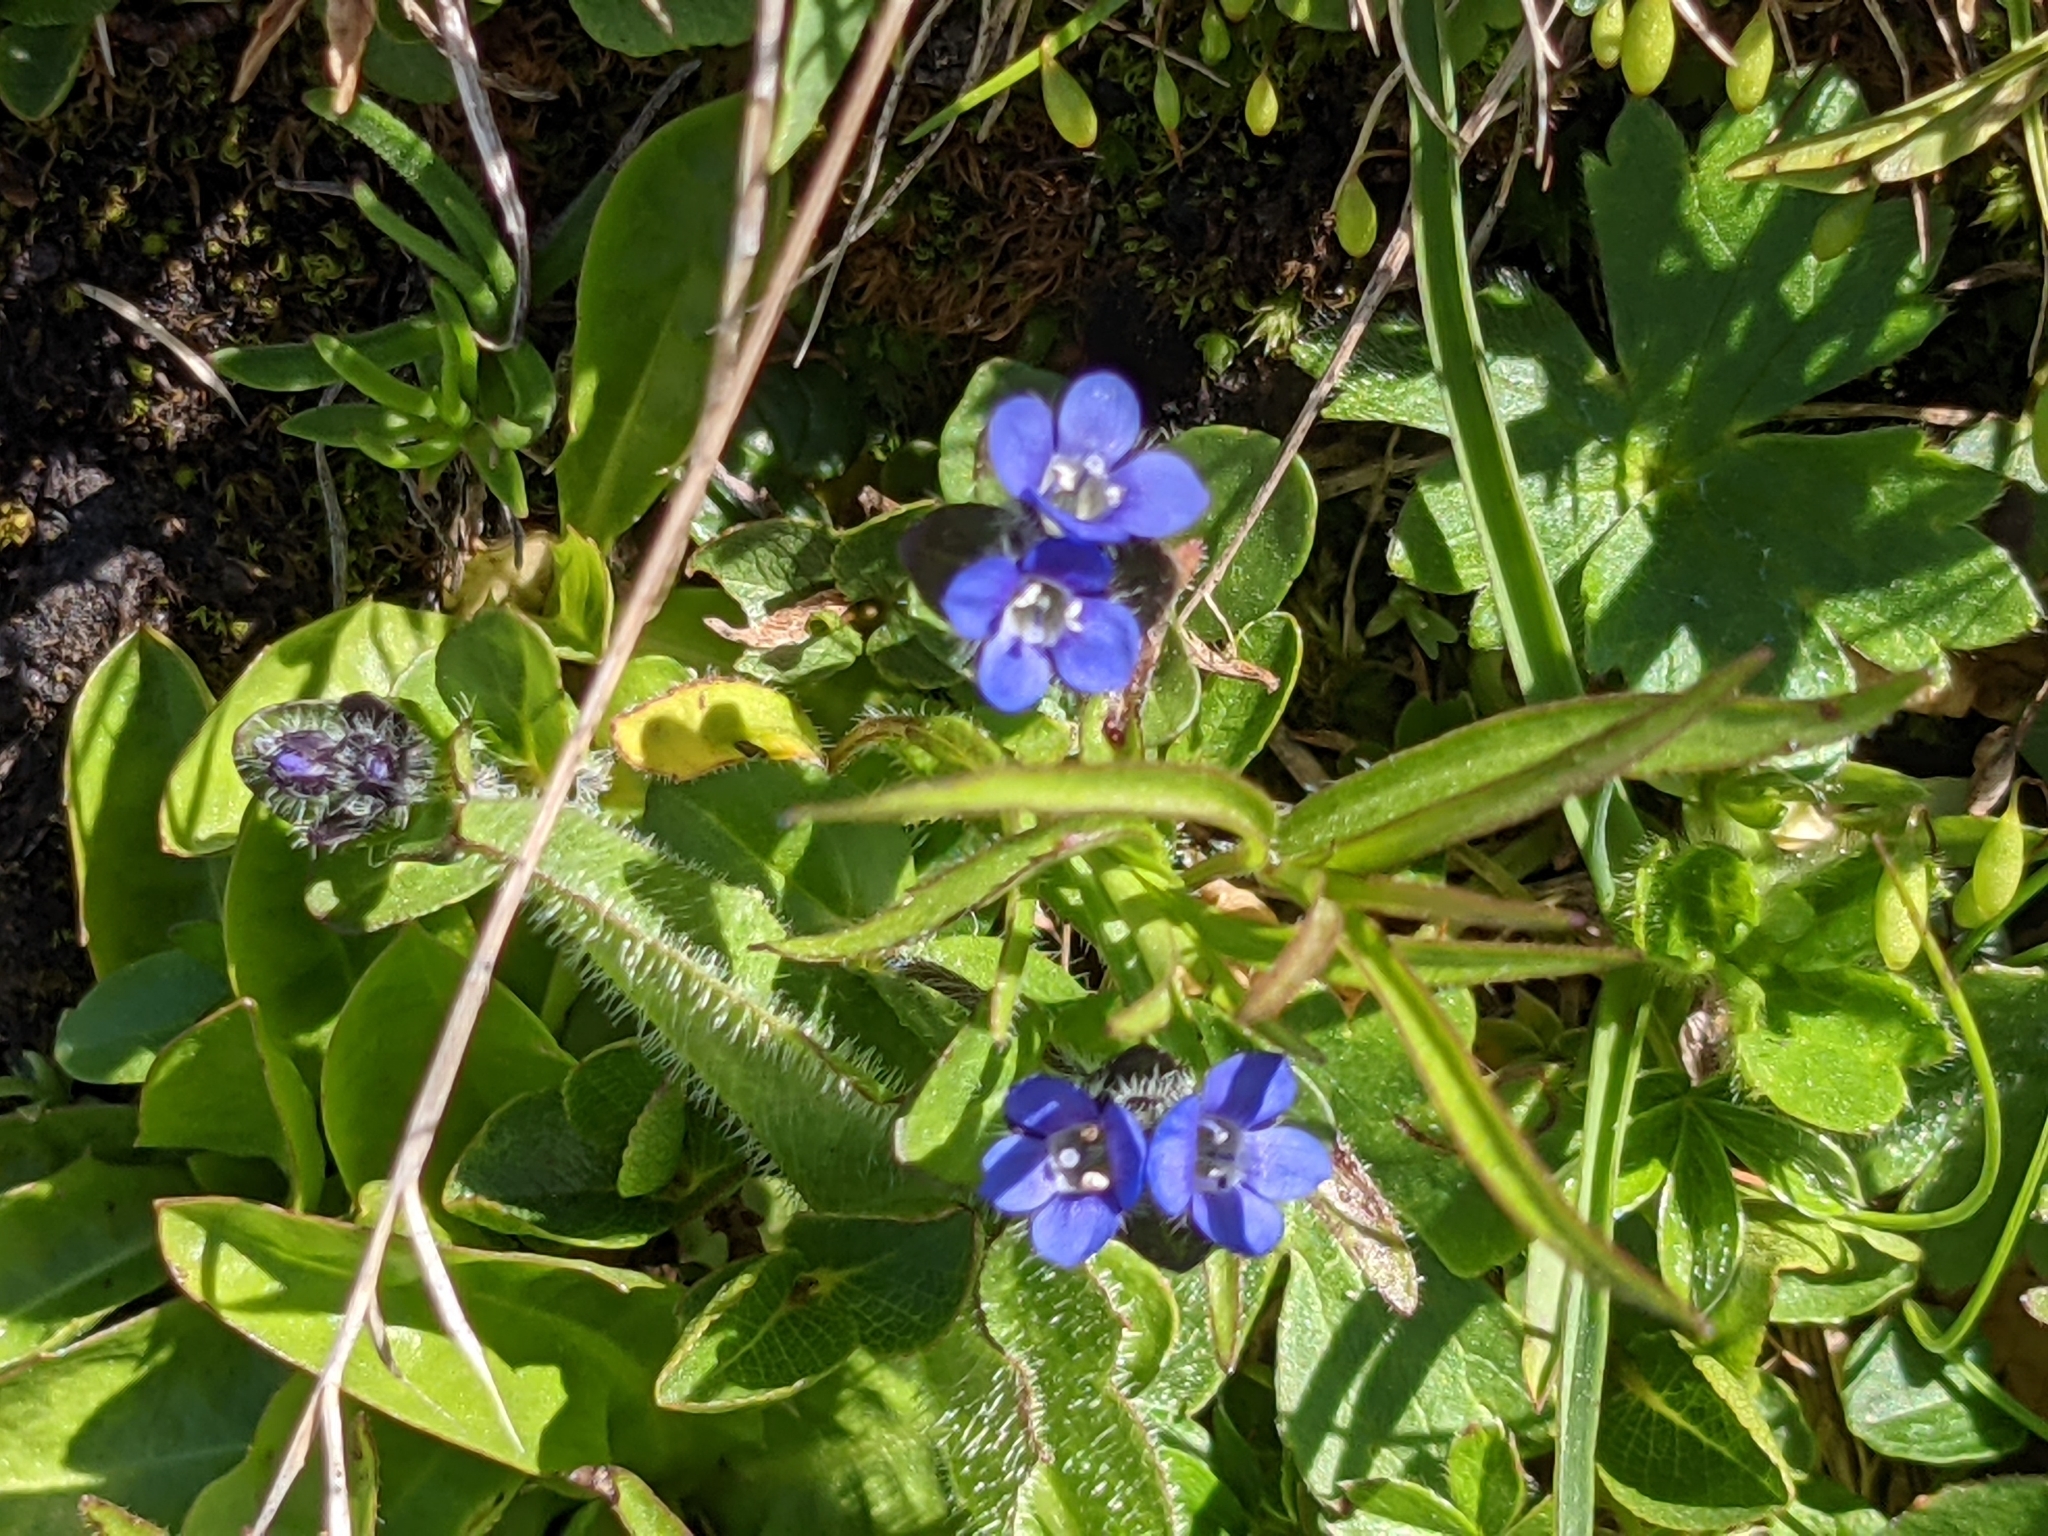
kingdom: Plantae
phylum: Tracheophyta
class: Magnoliopsida
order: Lamiales
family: Plantaginaceae
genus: Veronica
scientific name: Veronica alpina
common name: Alpine speedwell
